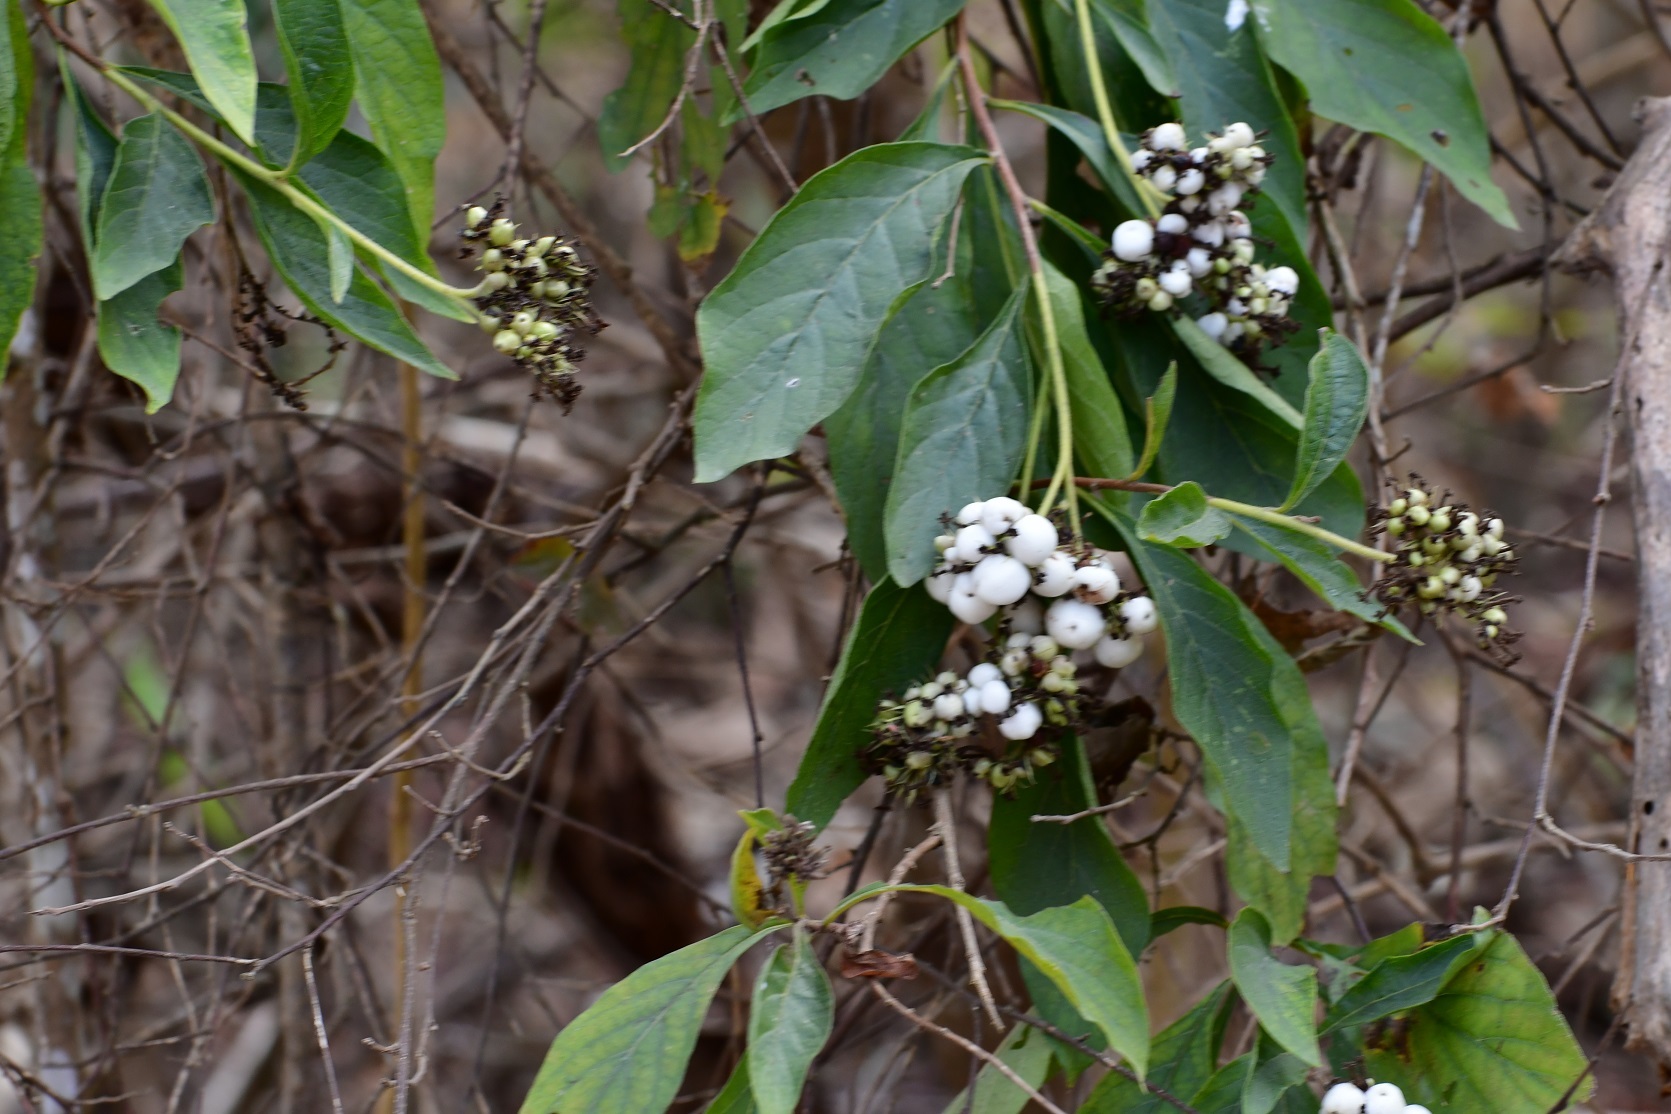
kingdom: Plantae
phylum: Tracheophyta
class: Magnoliopsida
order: Boraginales
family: Heliotropiaceae
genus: Tournefortia
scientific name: Tournefortia calycina
